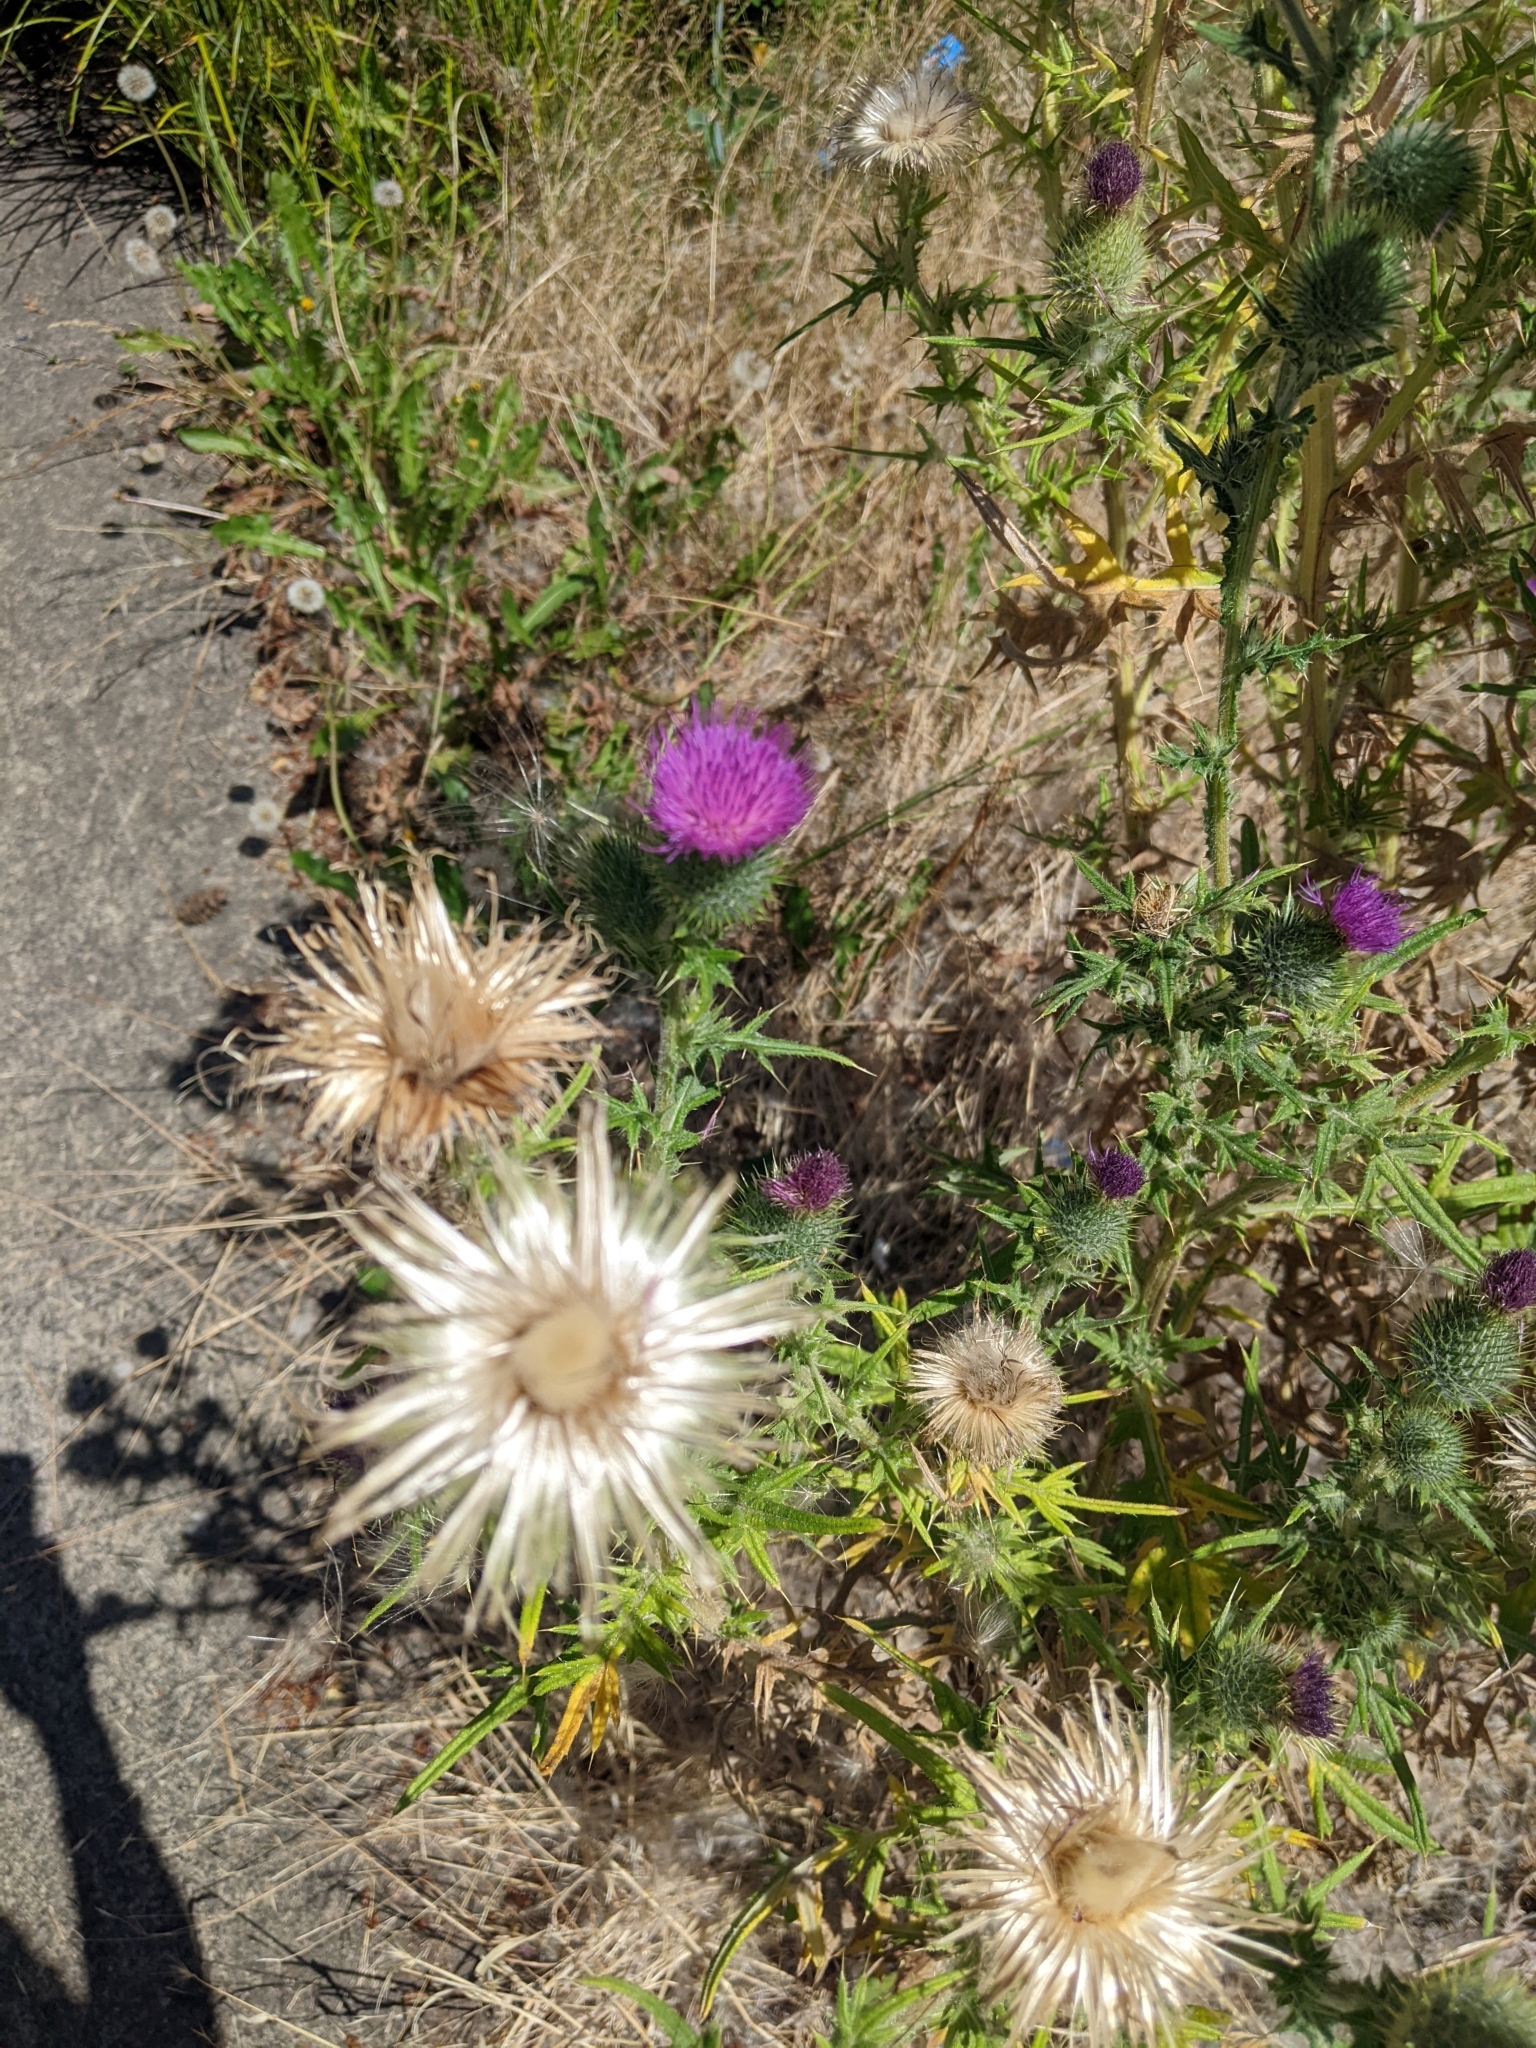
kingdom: Plantae
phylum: Tracheophyta
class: Magnoliopsida
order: Asterales
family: Asteraceae
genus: Cirsium
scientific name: Cirsium vulgare
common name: Bull thistle
